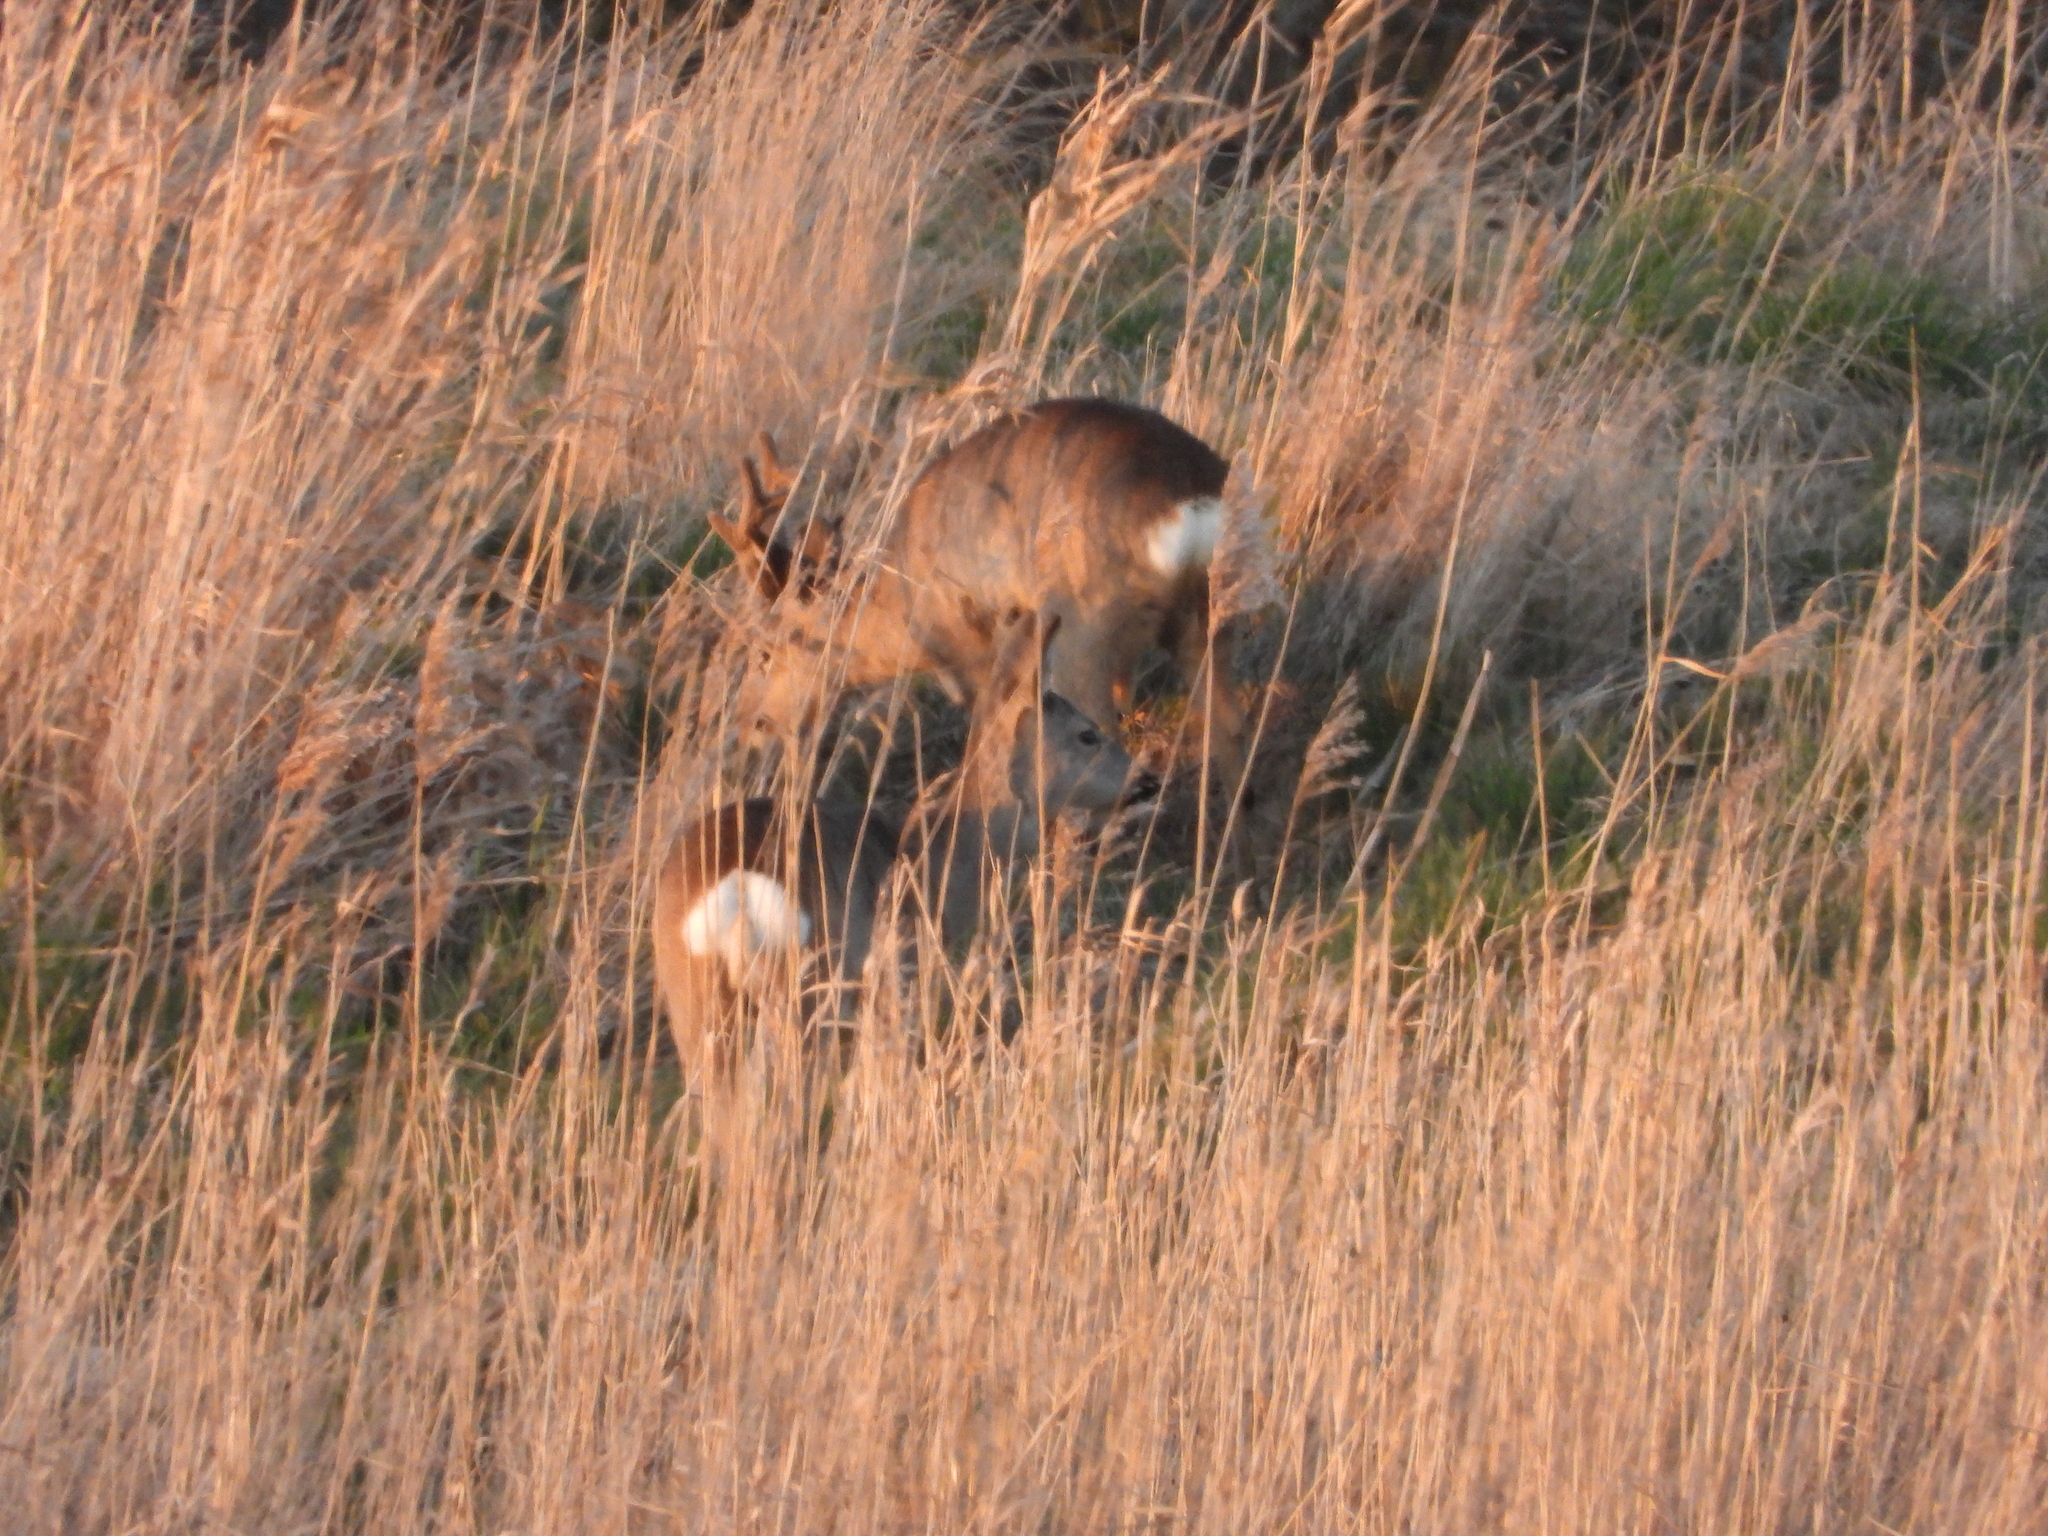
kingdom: Animalia
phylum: Chordata
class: Mammalia
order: Artiodactyla
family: Cervidae
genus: Capreolus
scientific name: Capreolus capreolus
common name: Western roe deer
